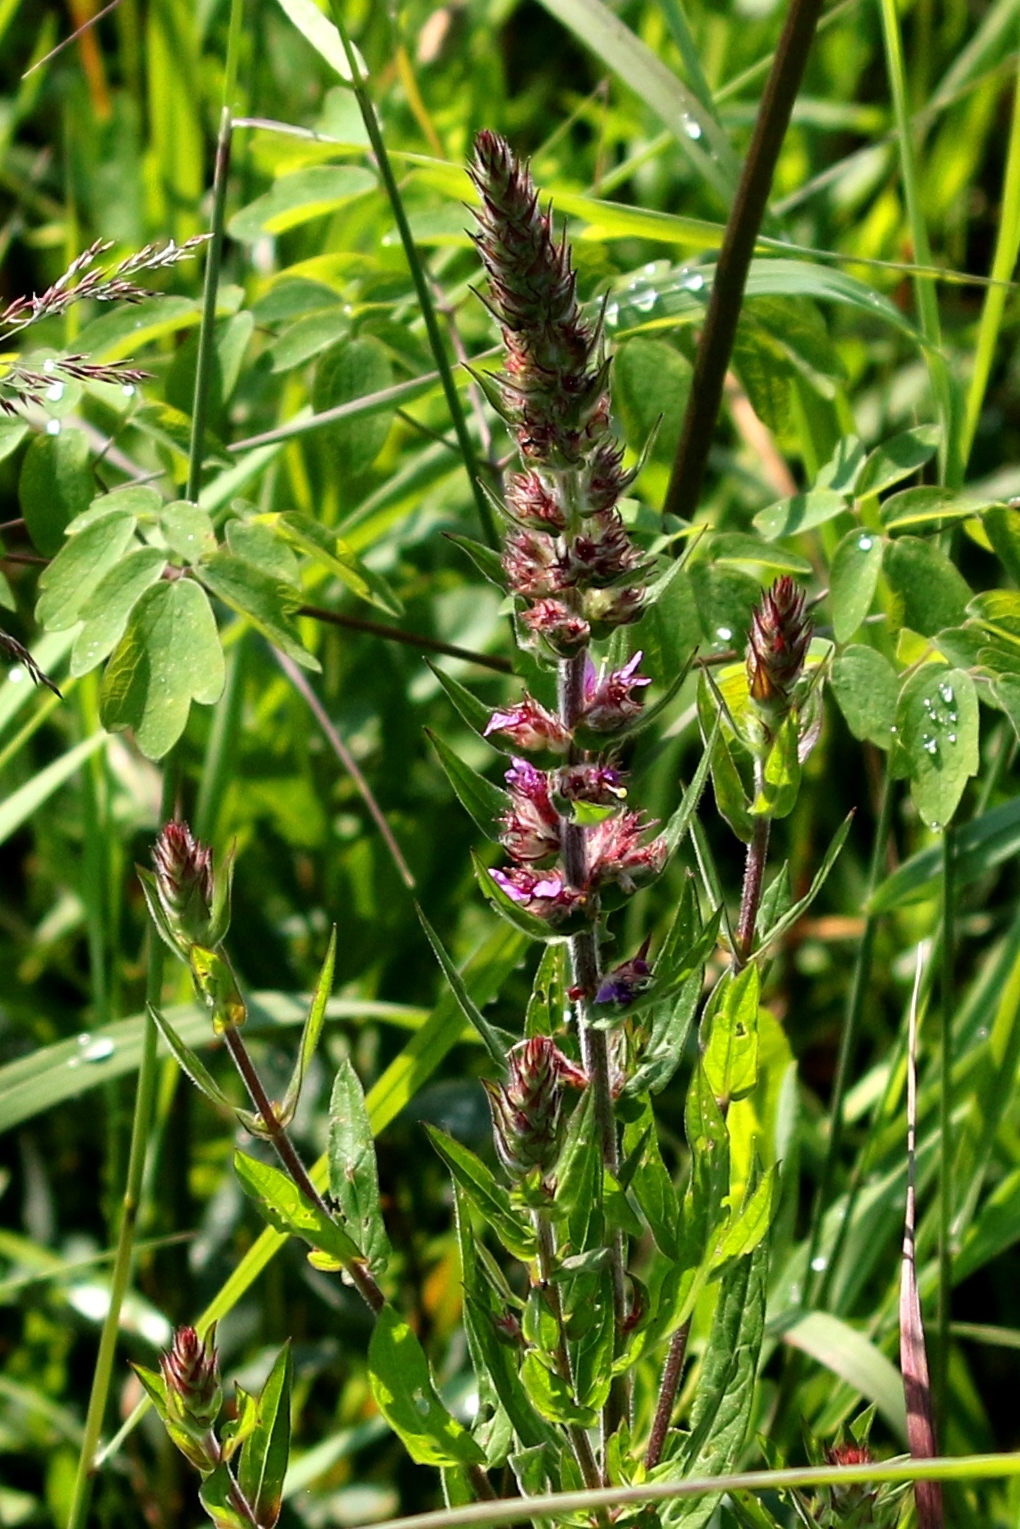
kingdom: Plantae
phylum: Tracheophyta
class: Magnoliopsida
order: Myrtales
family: Lythraceae
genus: Lythrum
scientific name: Lythrum salicaria
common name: Purple loosestrife
